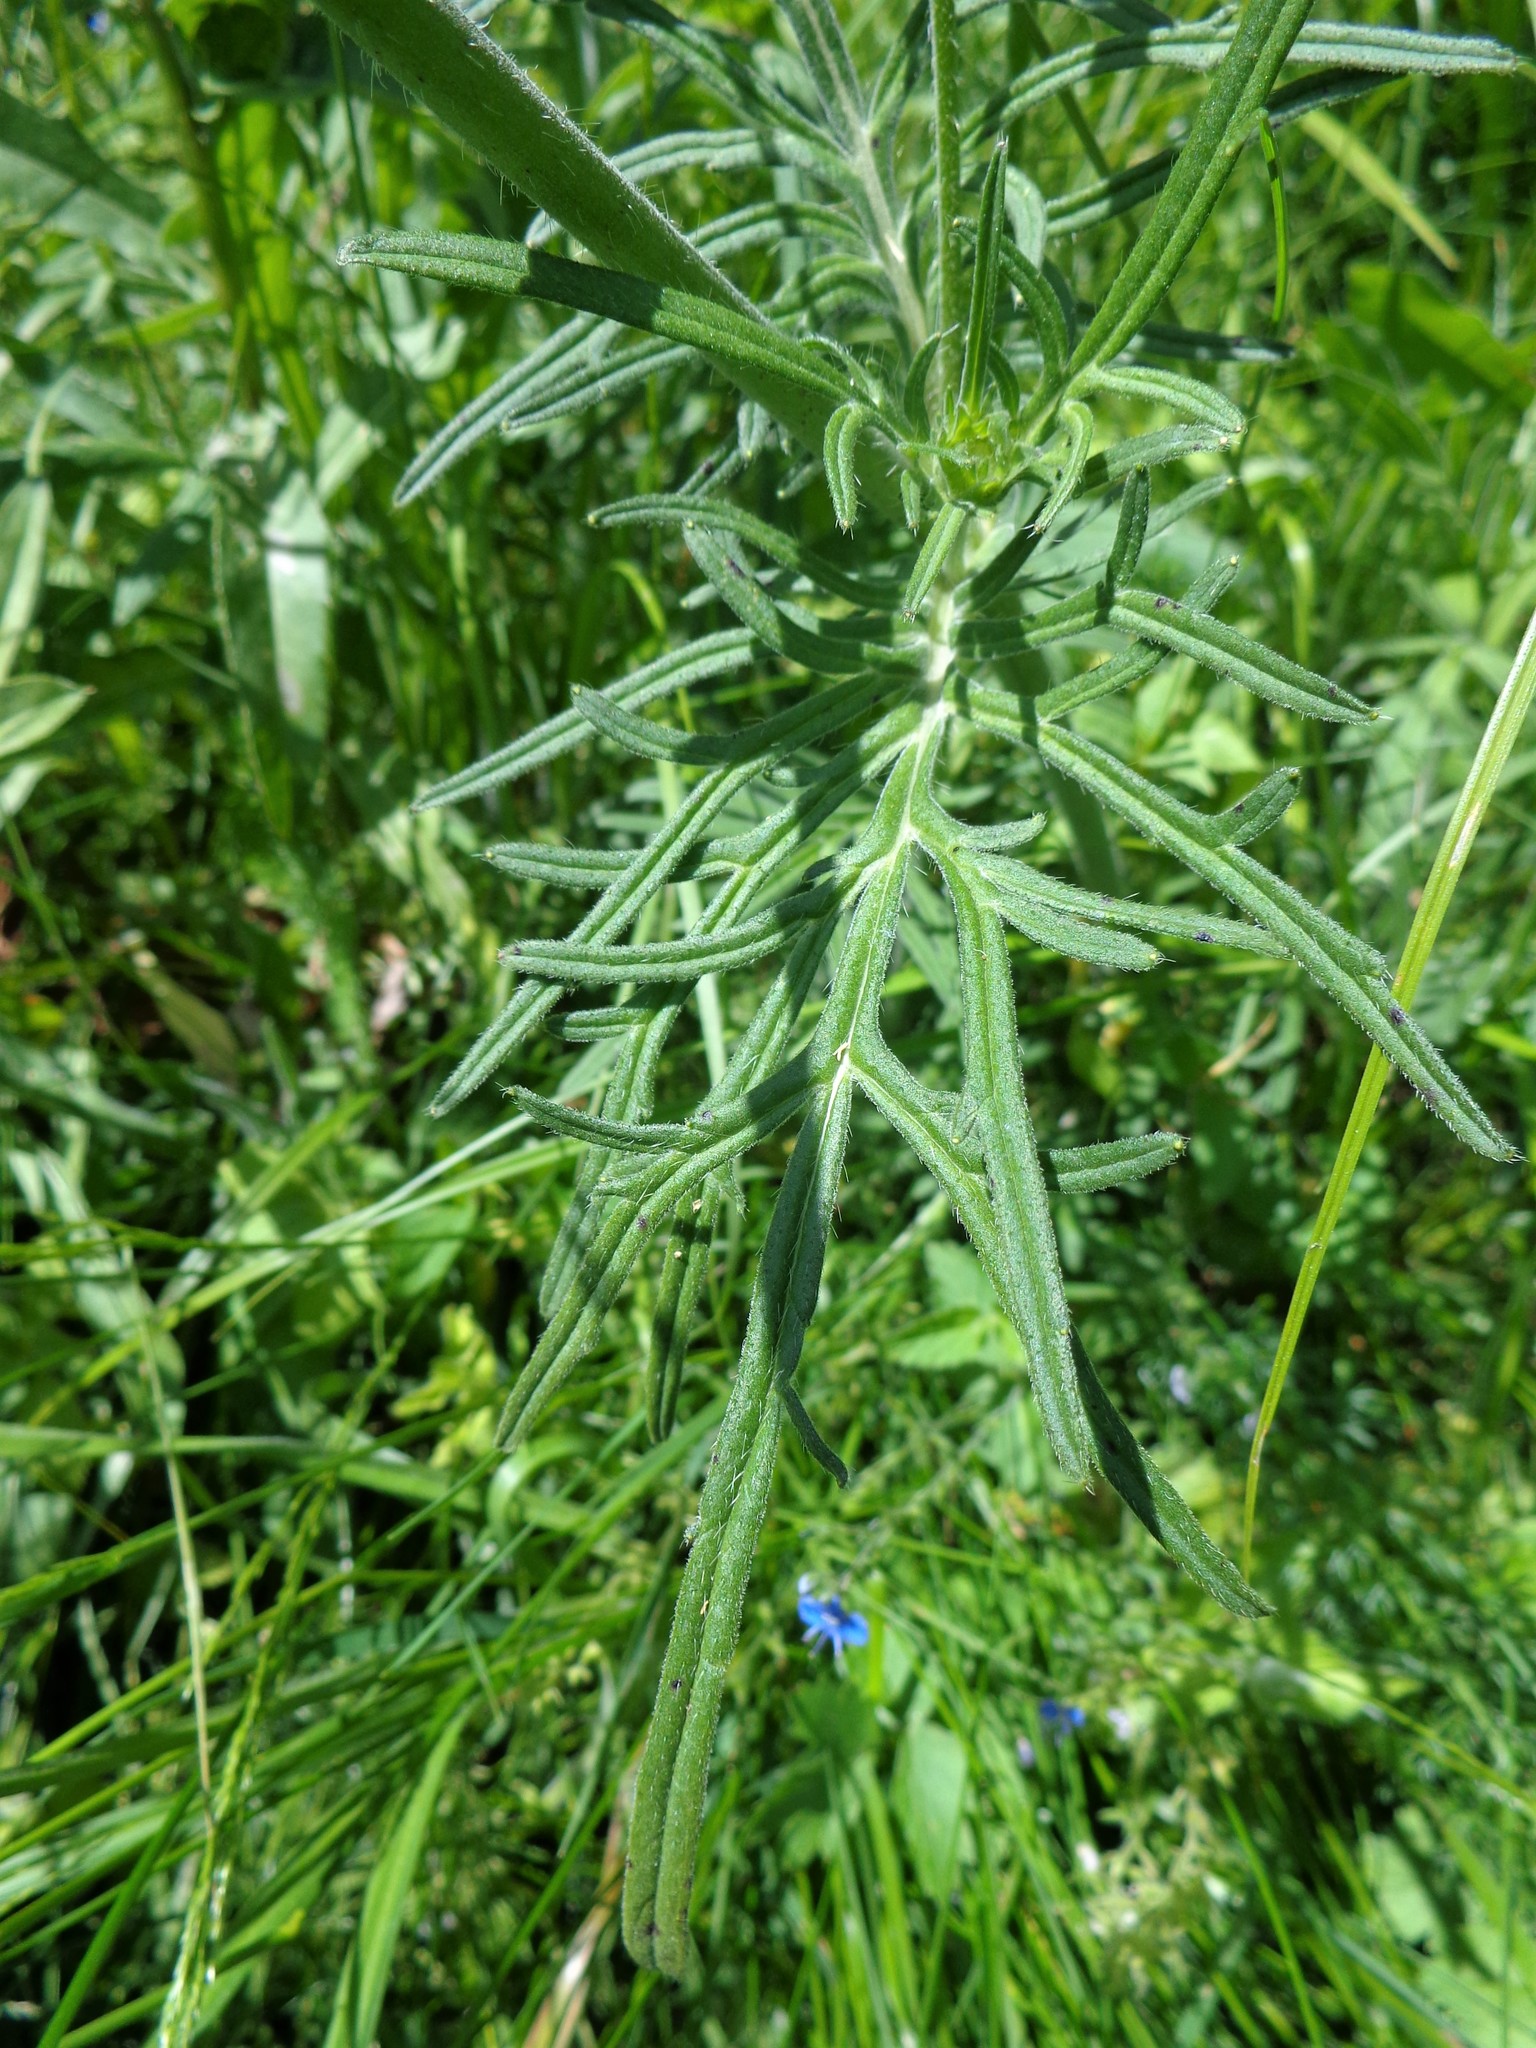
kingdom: Plantae
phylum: Tracheophyta
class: Magnoliopsida
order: Dipsacales
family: Caprifoliaceae
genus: Knautia
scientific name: Knautia arvensis
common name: Field scabiosa
